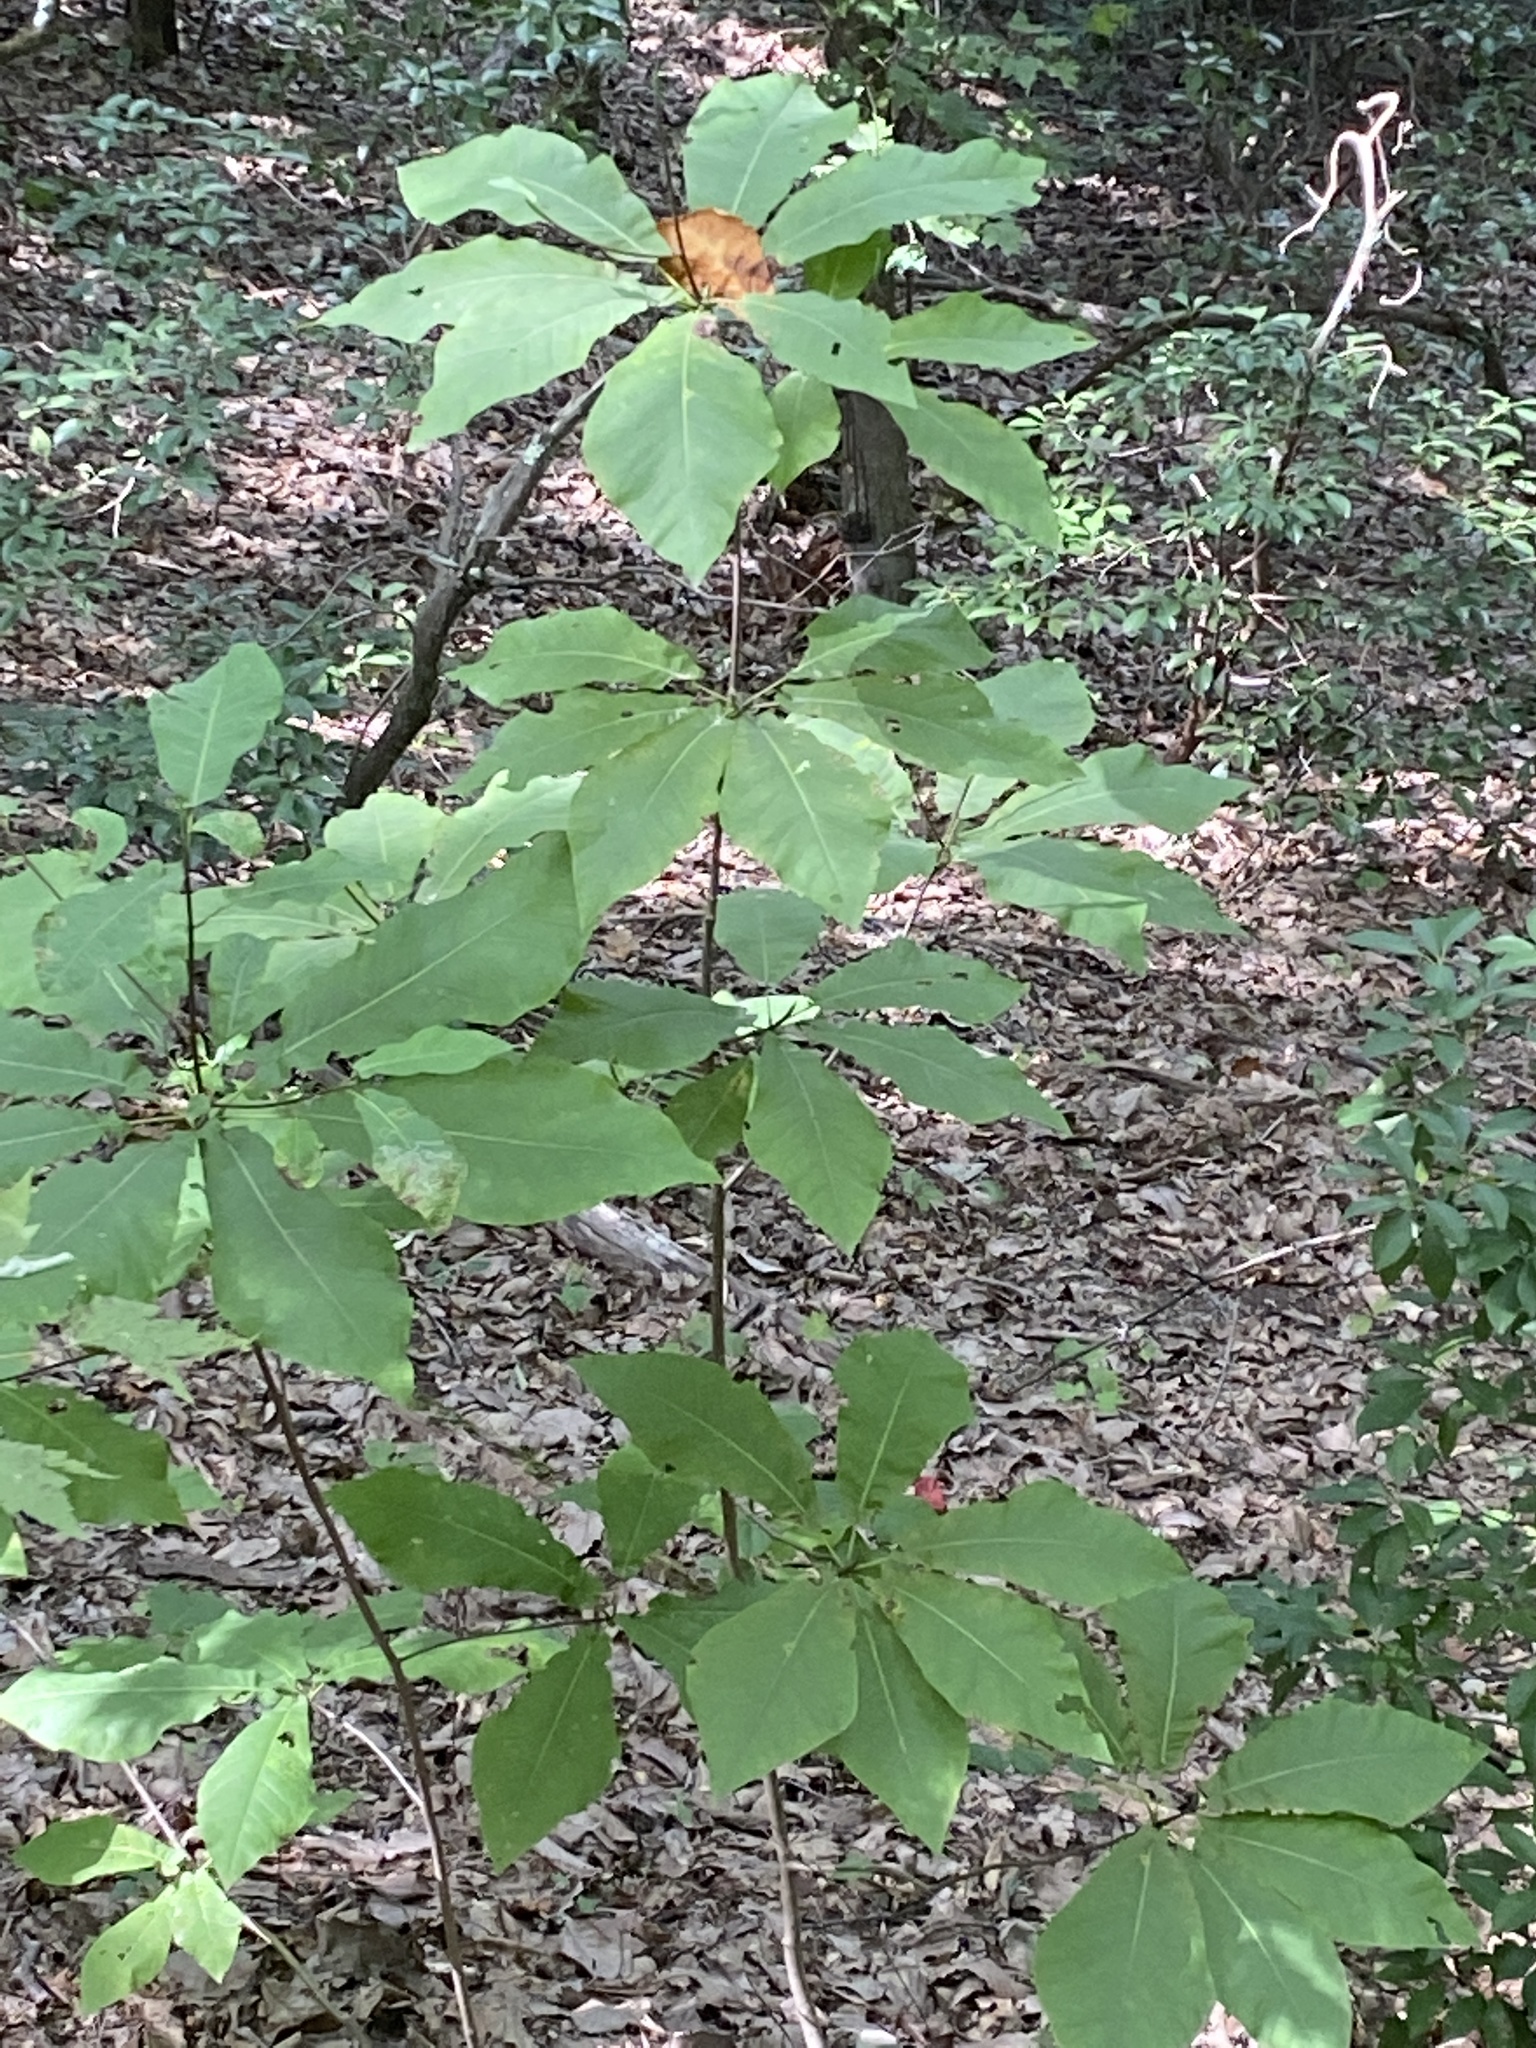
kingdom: Plantae
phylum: Tracheophyta
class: Magnoliopsida
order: Magnoliales
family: Magnoliaceae
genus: Magnolia
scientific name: Magnolia fraseri
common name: Fraser's magnolia
